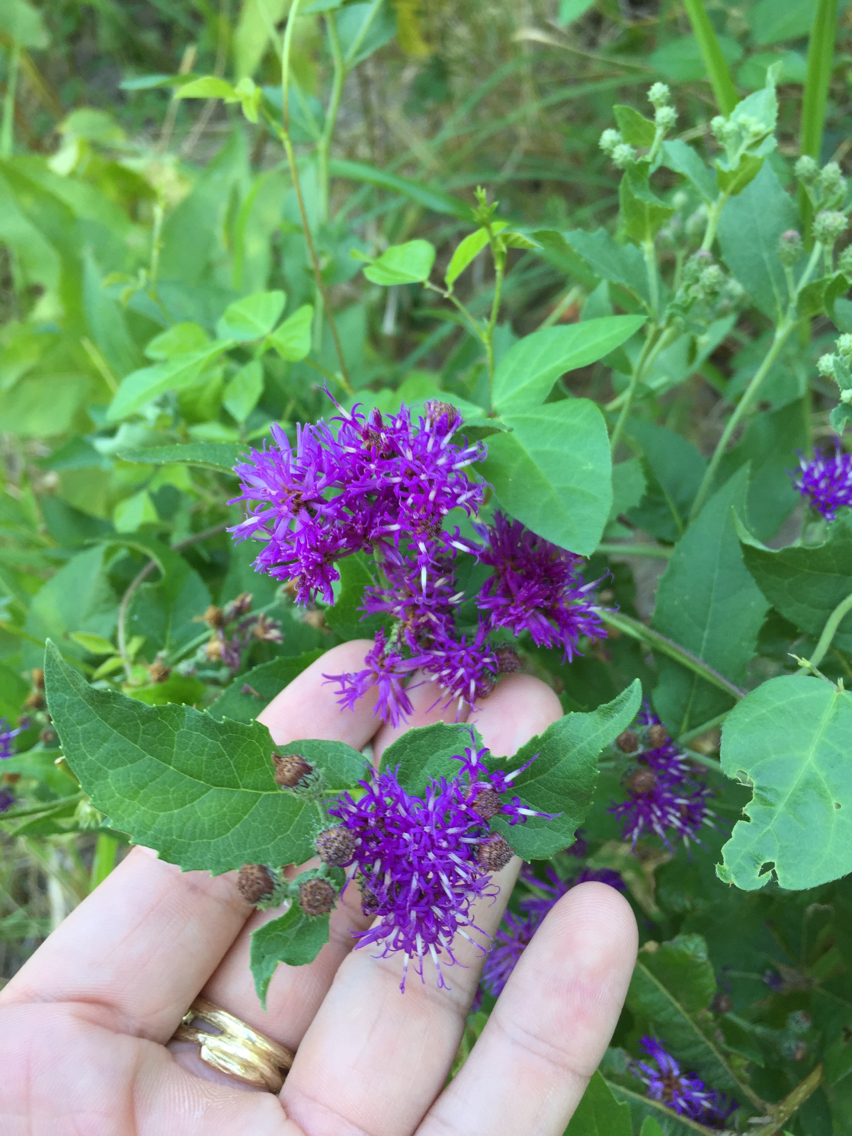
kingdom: Plantae
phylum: Tracheophyta
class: Magnoliopsida
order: Asterales
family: Asteraceae
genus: Vernonia
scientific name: Vernonia baldwinii
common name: Western ironweed
